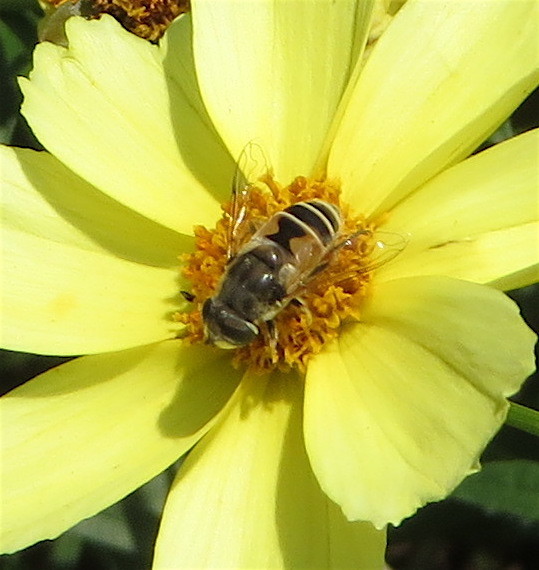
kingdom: Animalia
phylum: Arthropoda
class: Insecta
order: Diptera
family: Syrphidae
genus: Eristalis
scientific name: Eristalis arbustorum
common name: Hover fly
